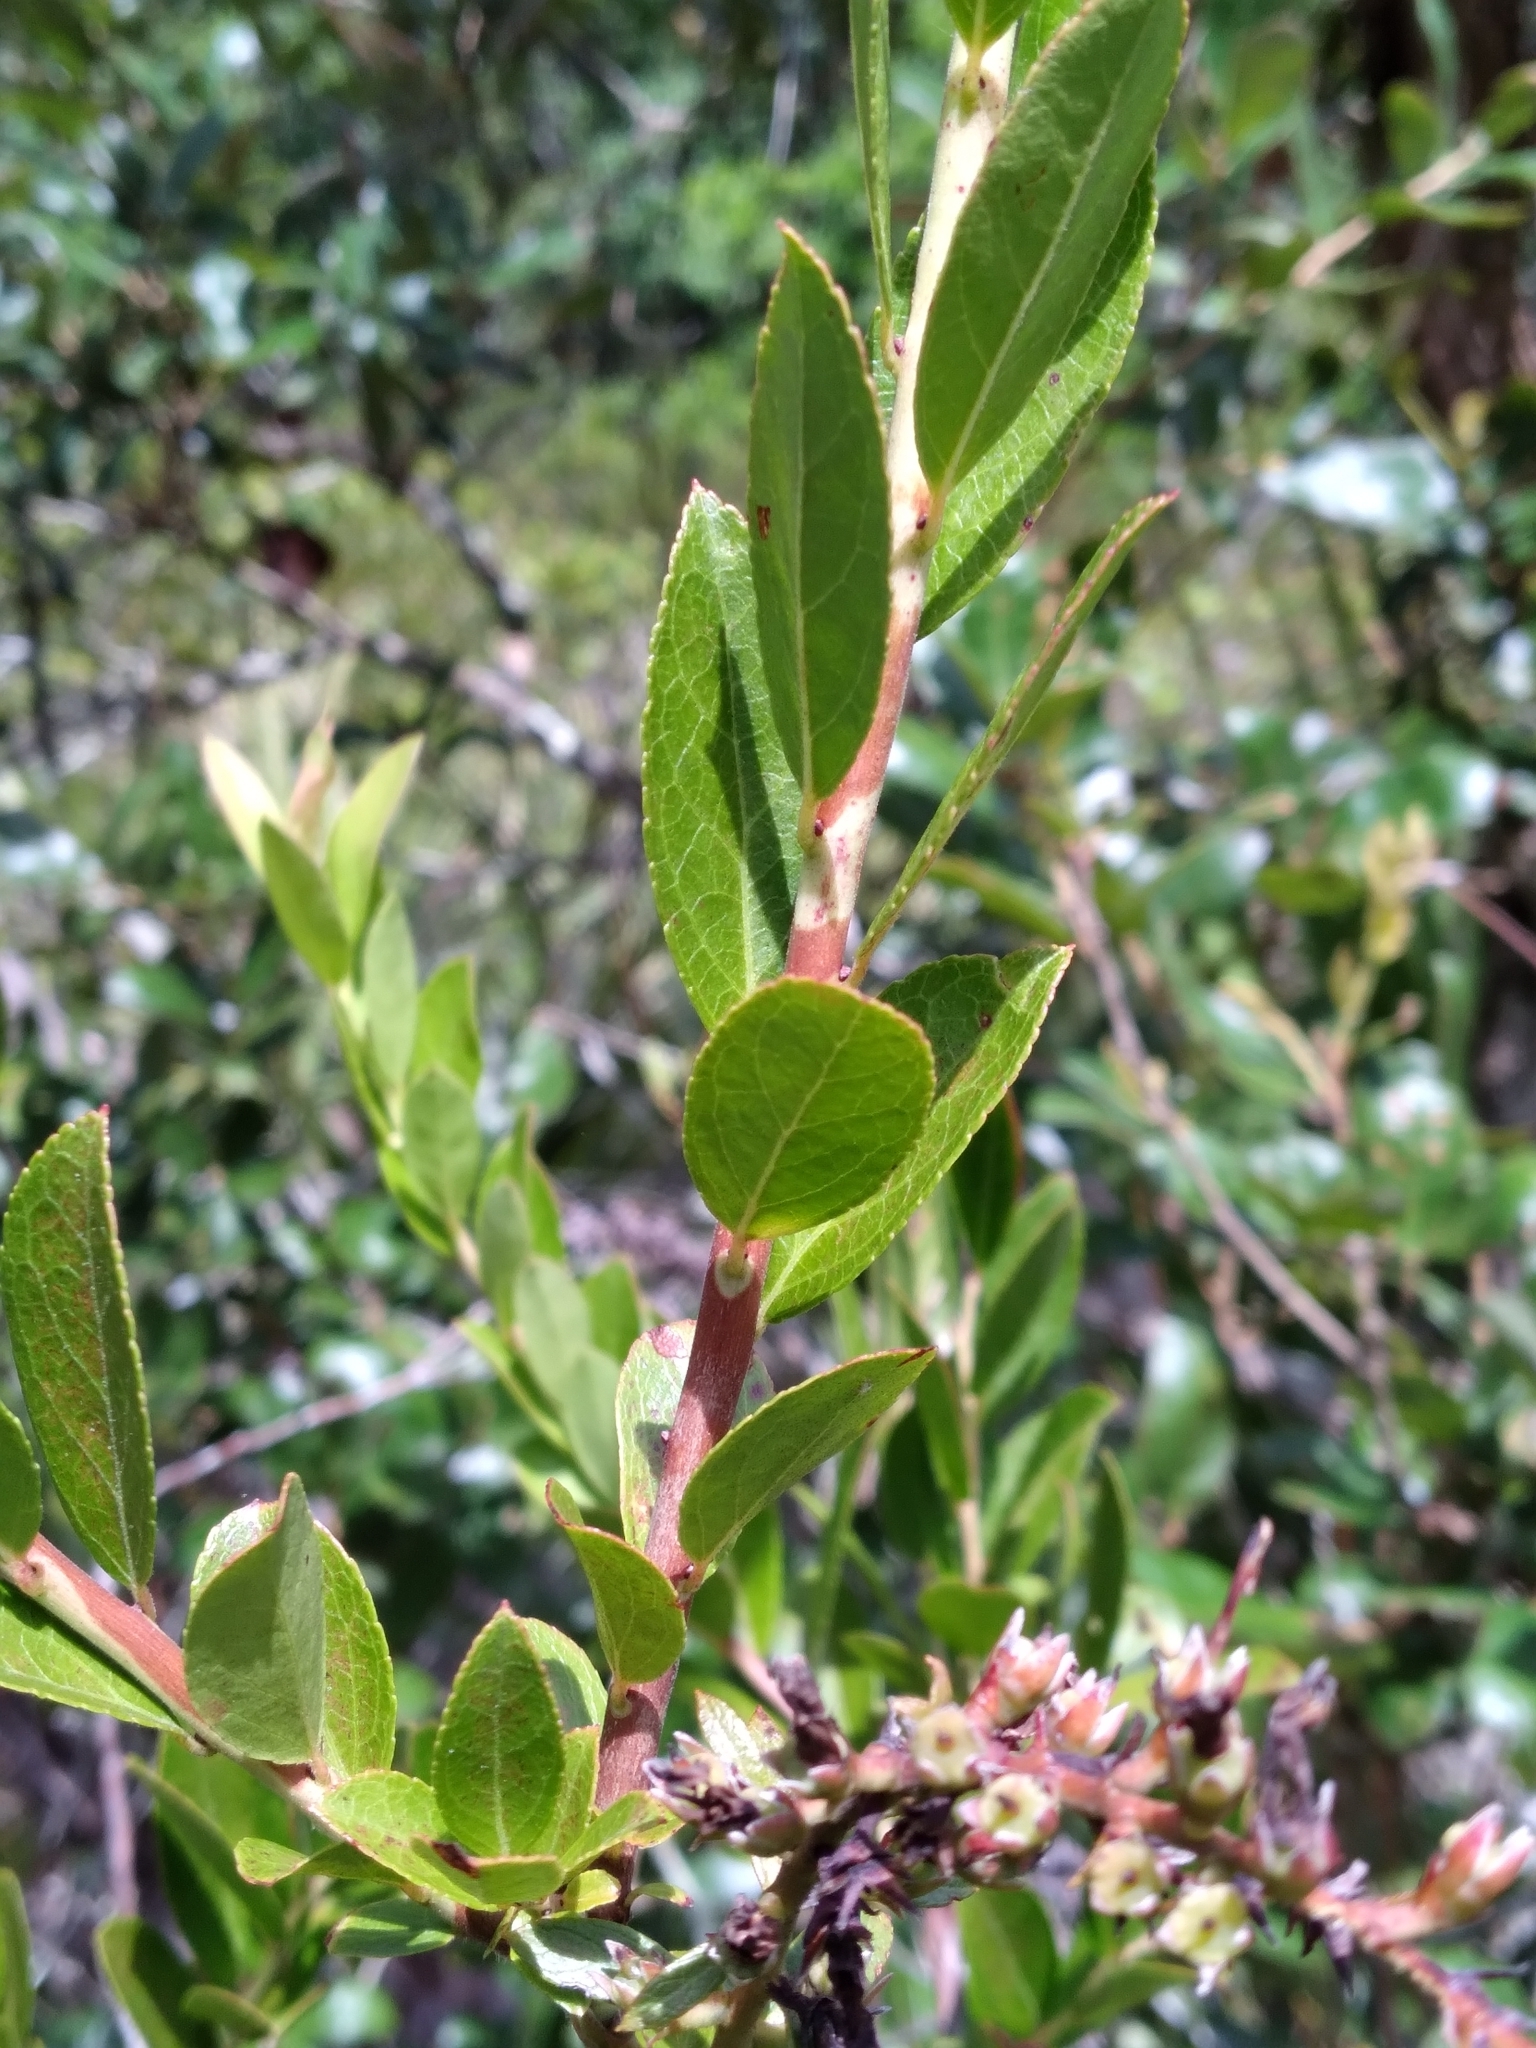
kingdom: Plantae
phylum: Tracheophyta
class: Magnoliopsida
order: Ericales
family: Ericaceae
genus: Eubotrys
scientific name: Eubotrys racemosa
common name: Fetterbush
